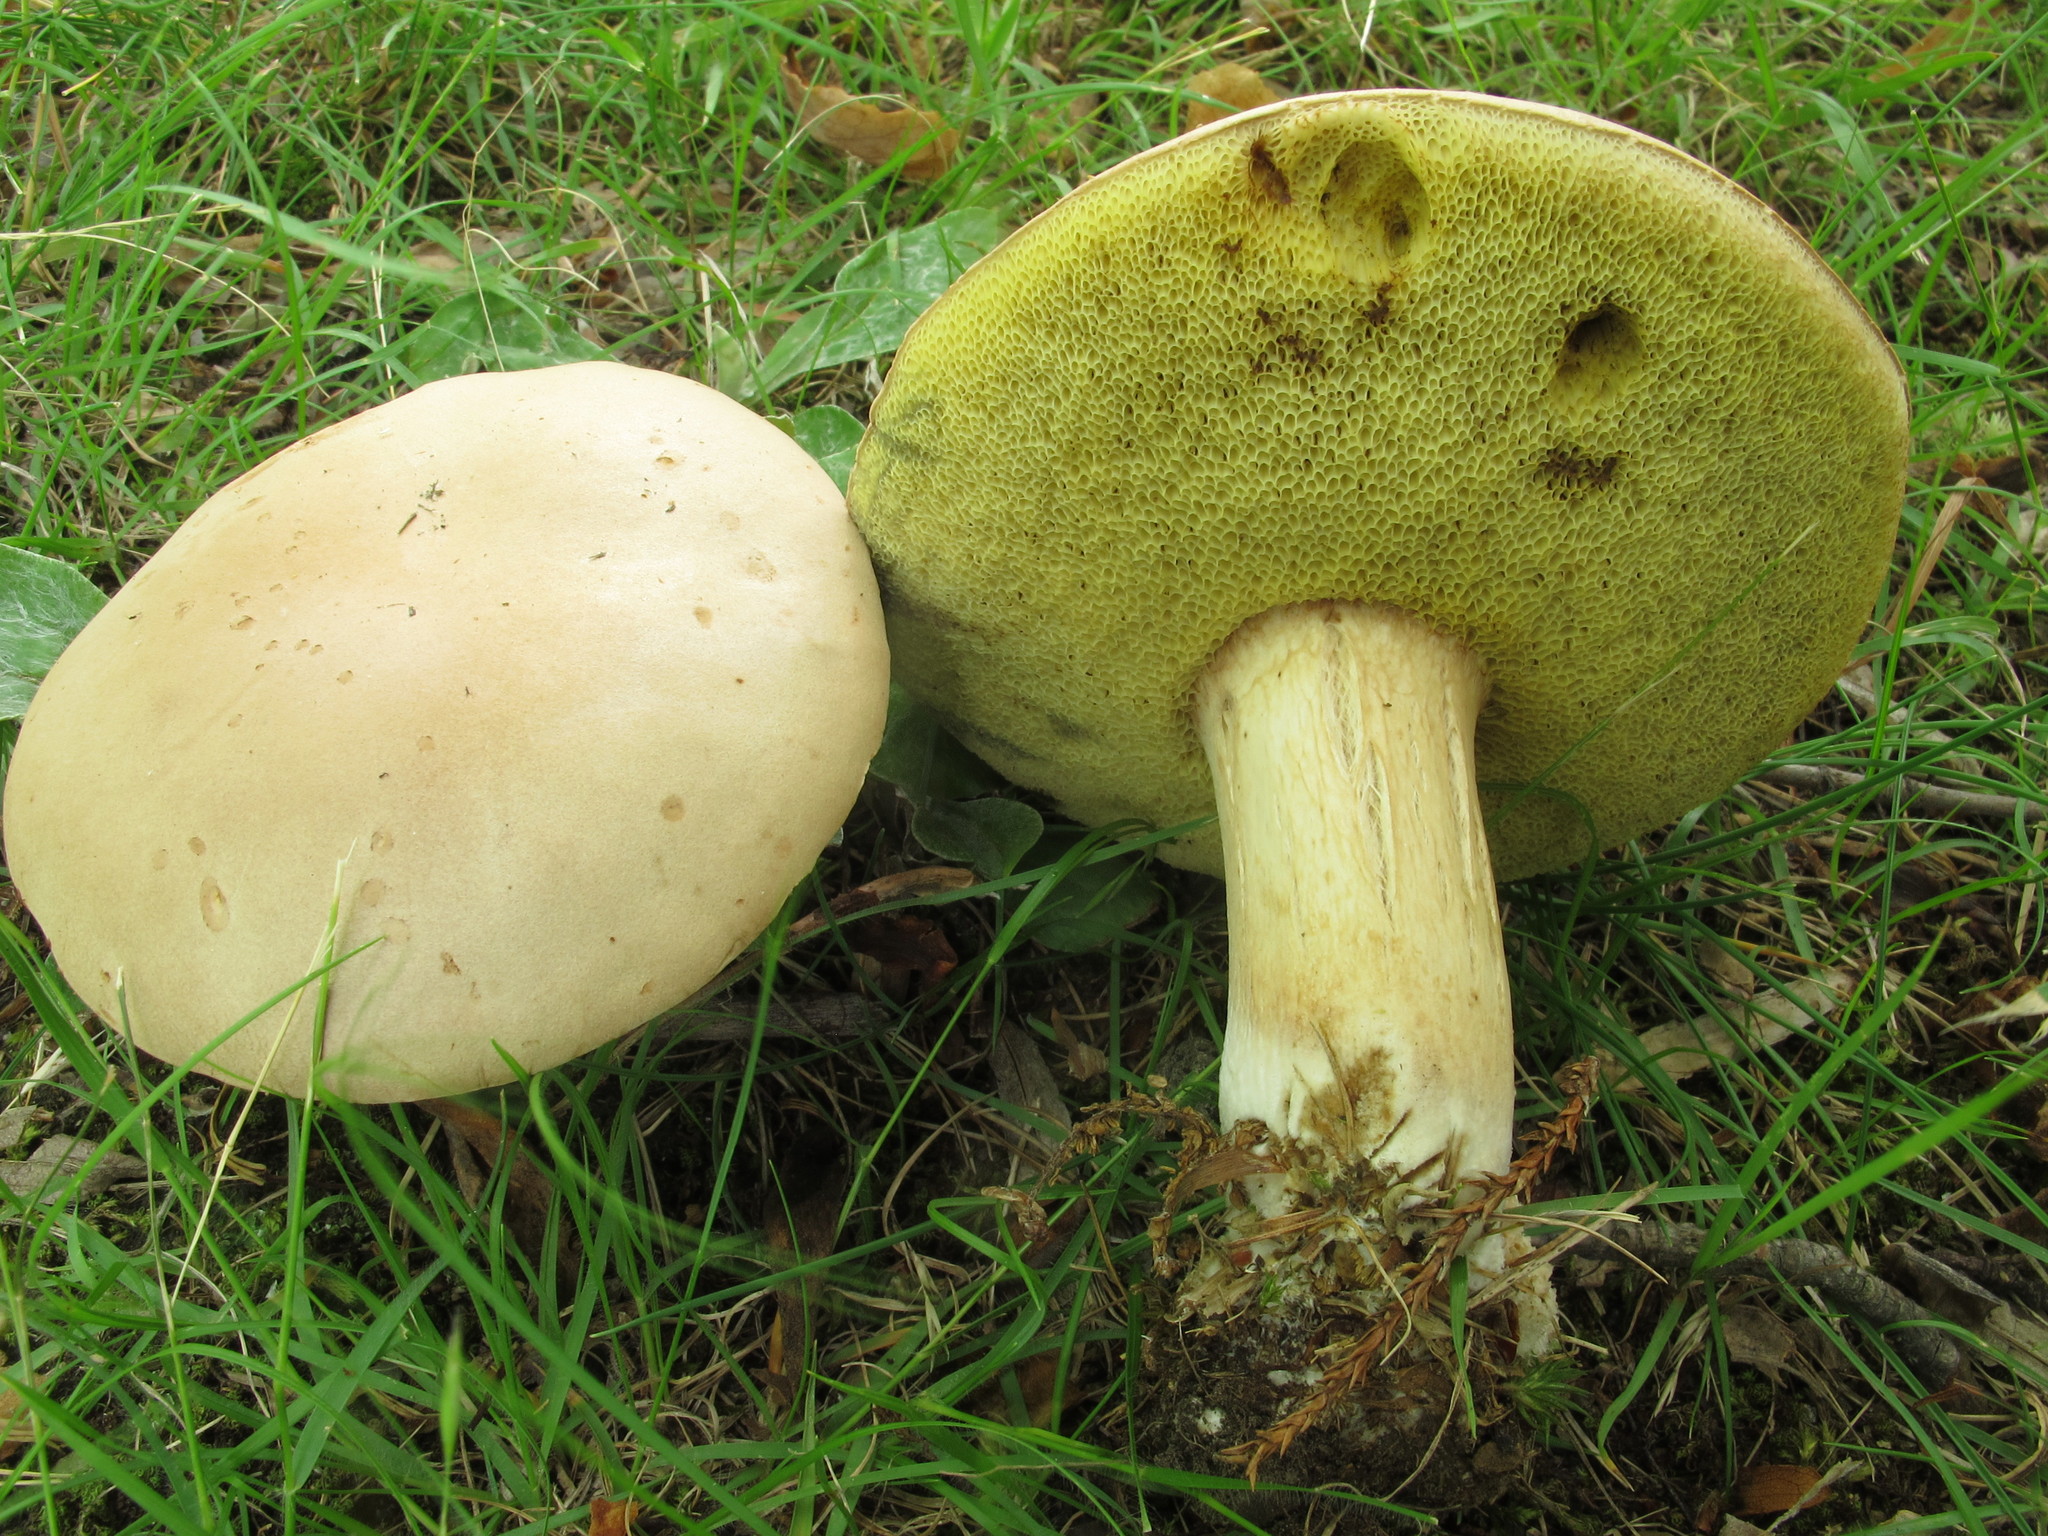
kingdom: Fungi
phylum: Basidiomycota
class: Agaricomycetes
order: Boletales
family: Boletaceae
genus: Imleria
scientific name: Imleria pallida
